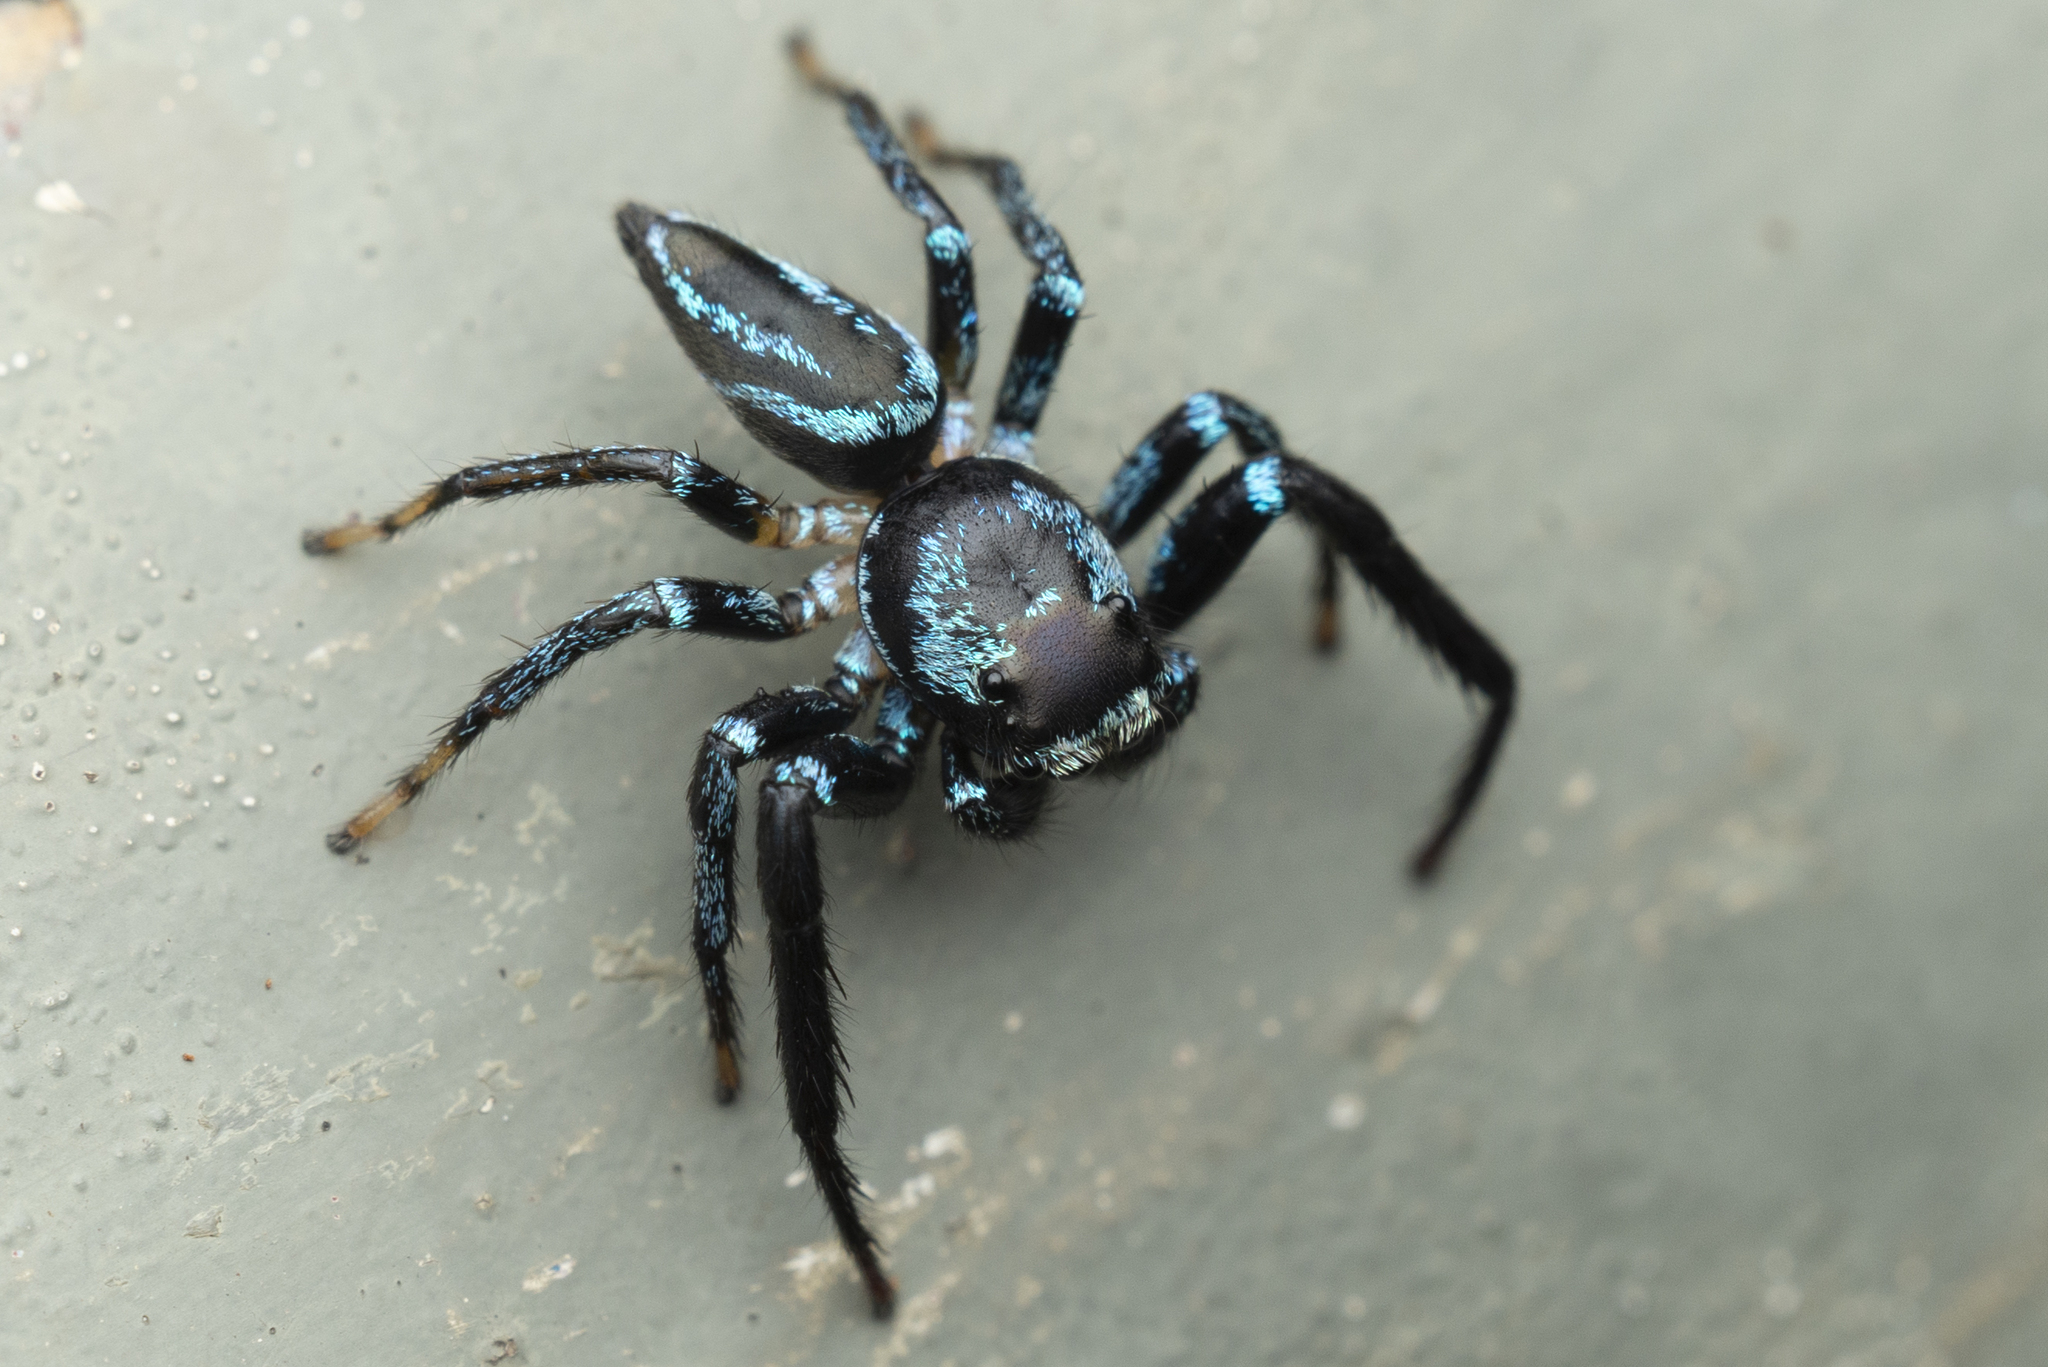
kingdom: Animalia
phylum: Arthropoda
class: Arachnida
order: Araneae
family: Salticidae
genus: Thiania
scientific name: Thiania suboppressa
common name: Jumping spider
